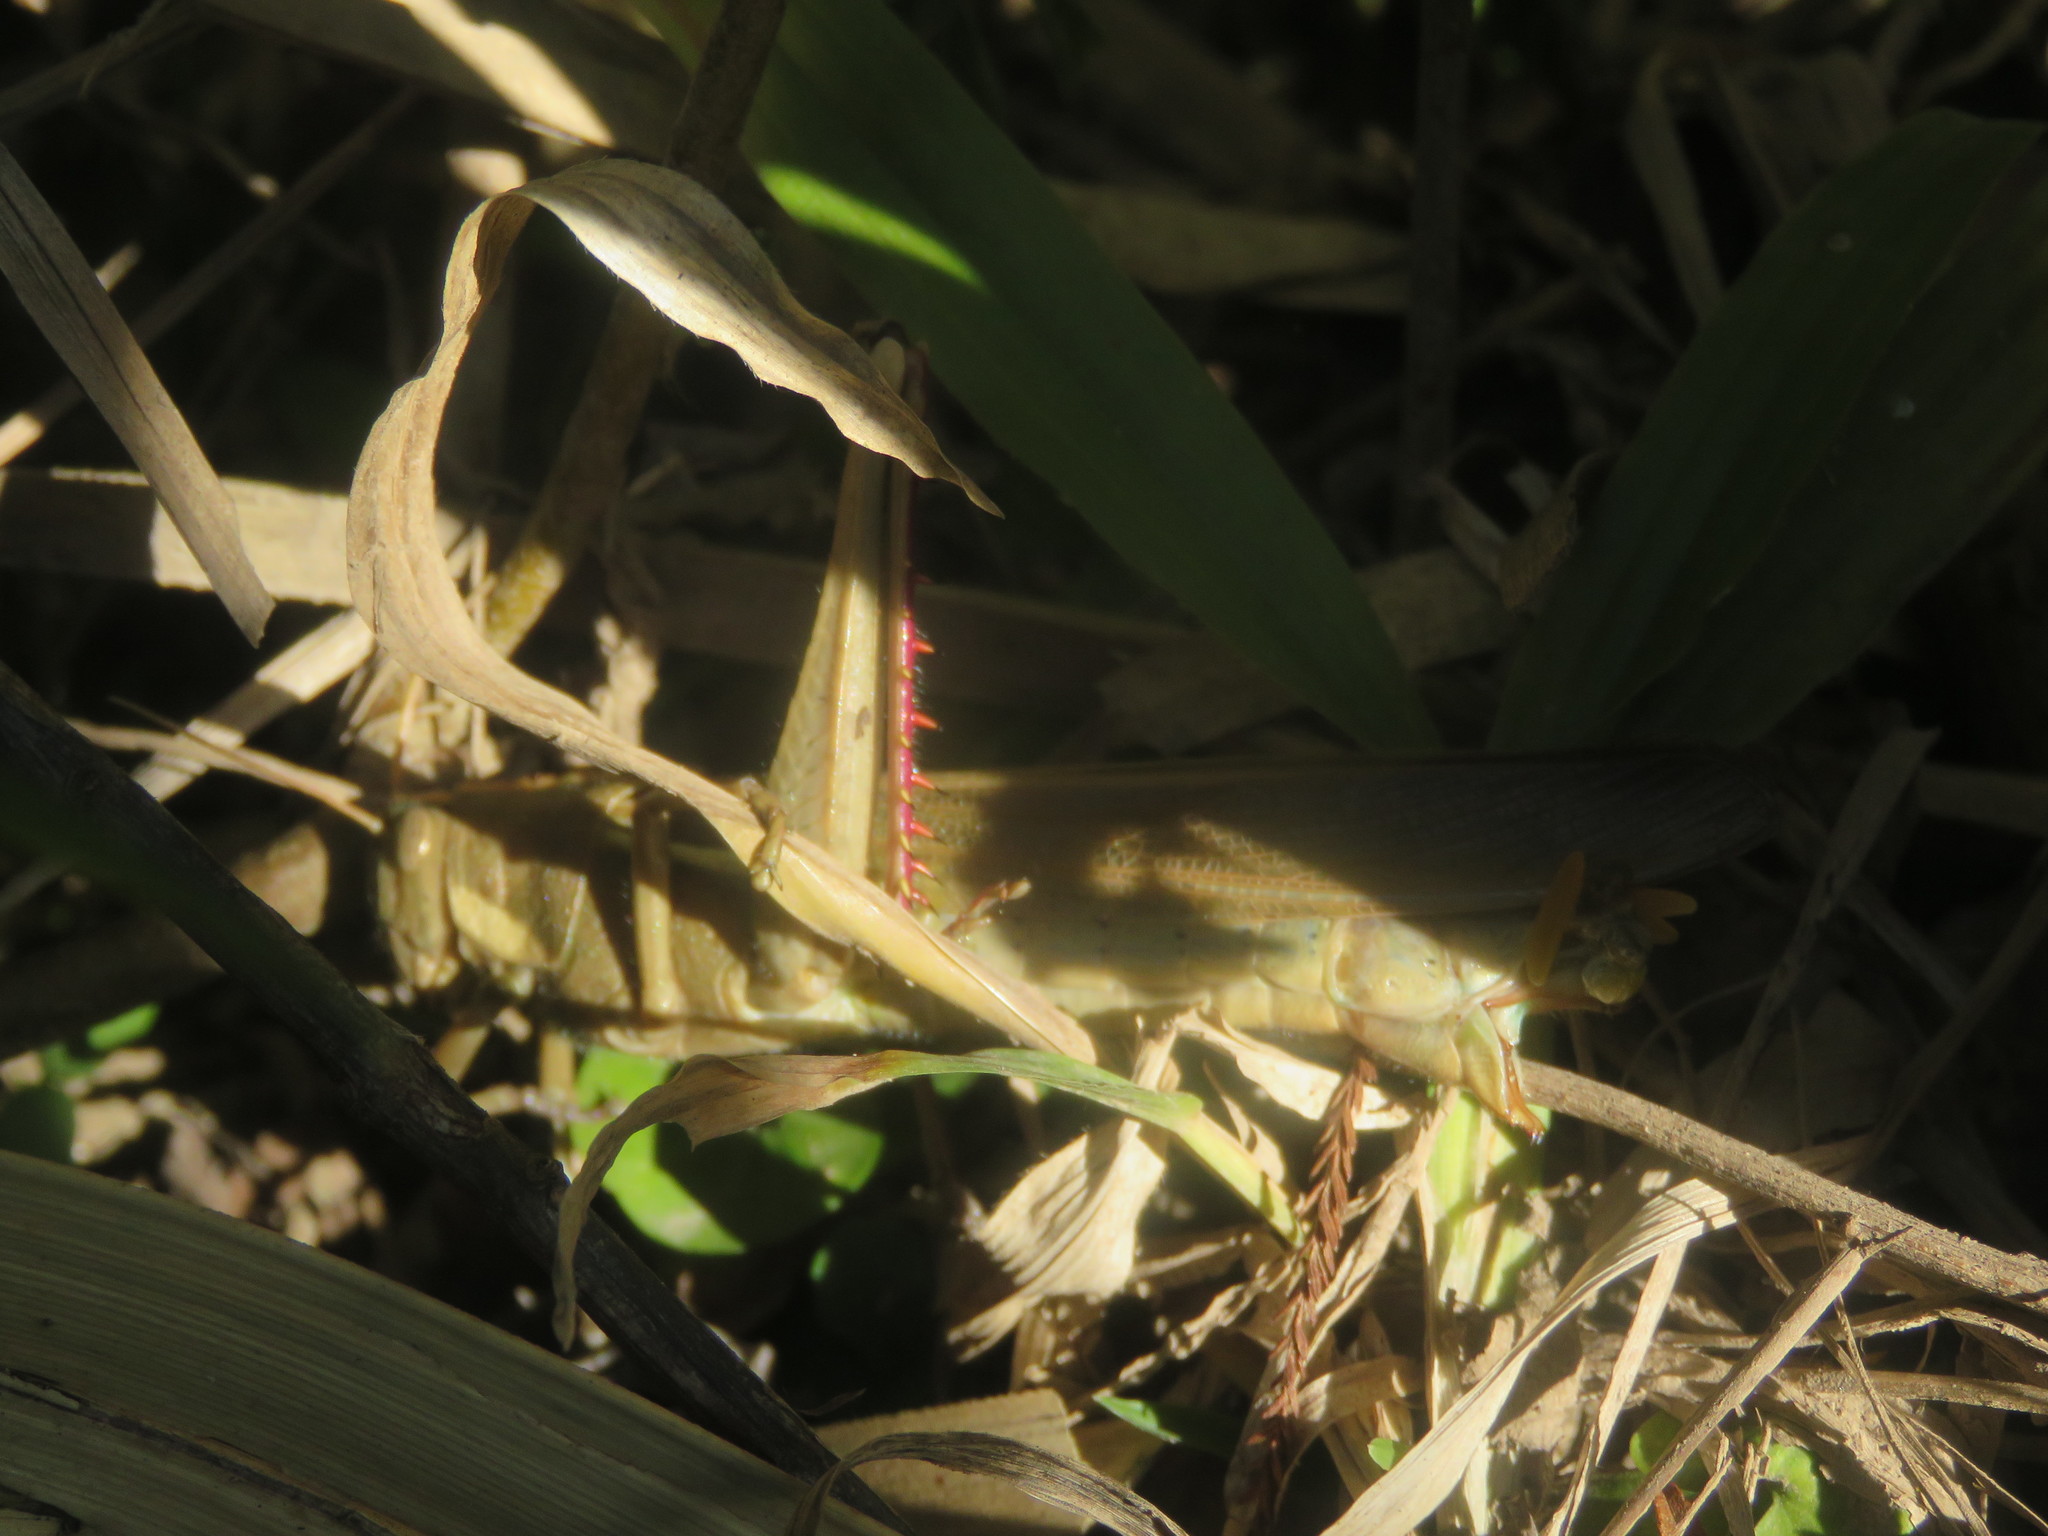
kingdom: Animalia
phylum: Arthropoda
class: Insecta
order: Orthoptera
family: Acrididae
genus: Schistocerca
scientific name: Schistocerca flavofasciata
